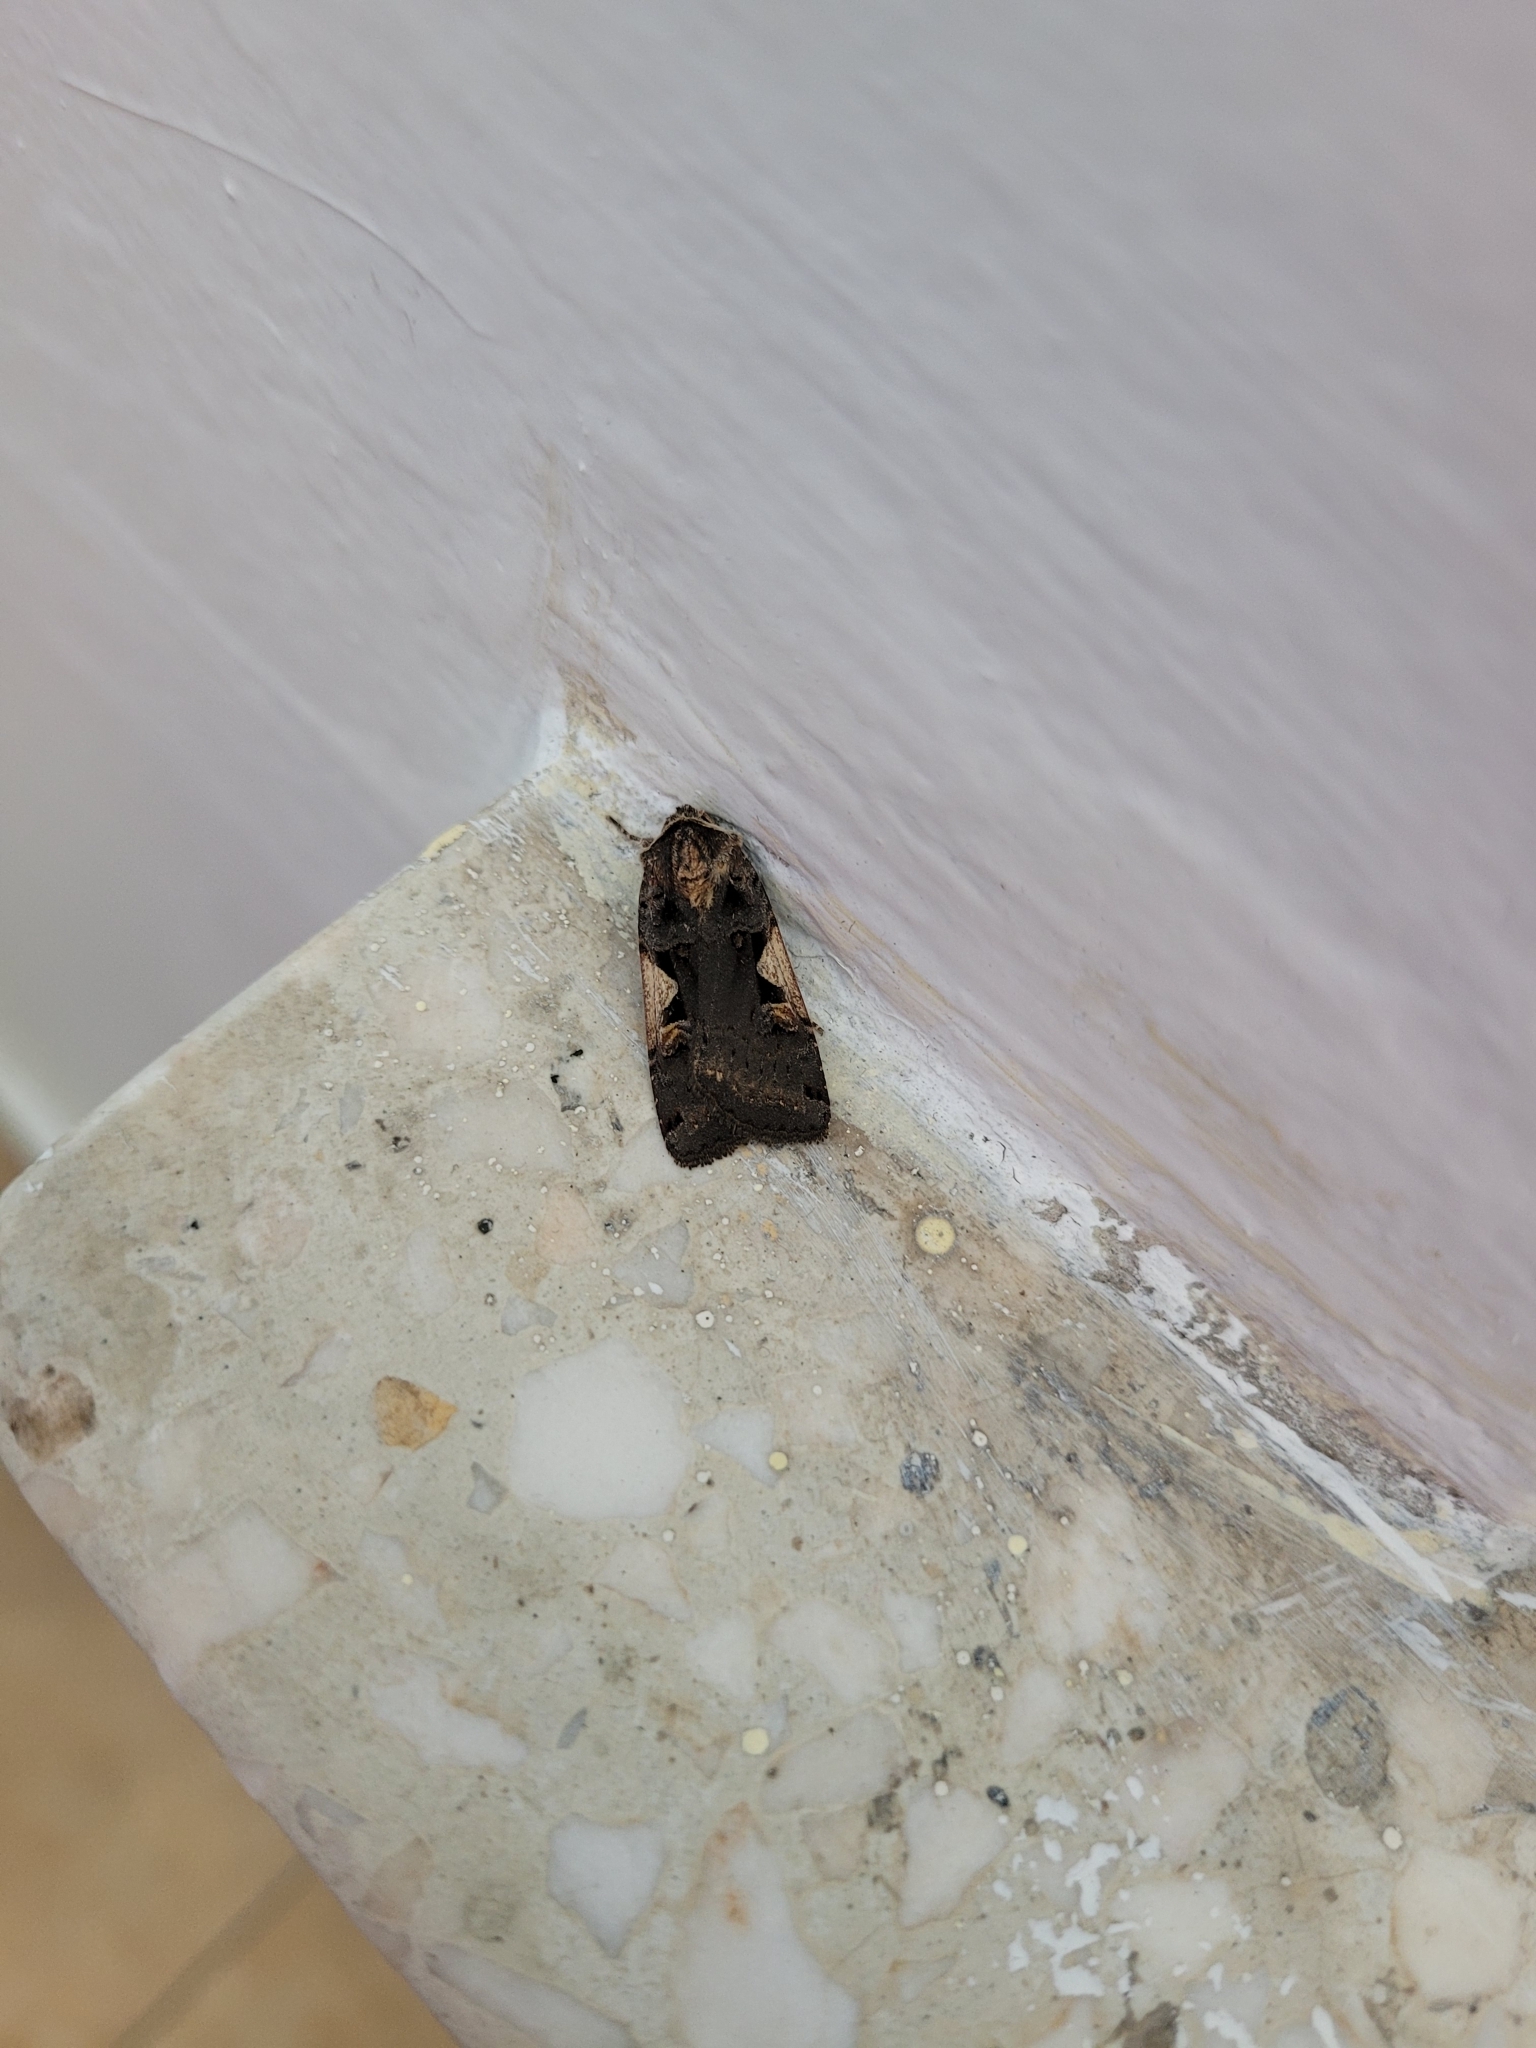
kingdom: Animalia
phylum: Arthropoda
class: Insecta
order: Lepidoptera
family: Noctuidae
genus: Xestia
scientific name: Xestia c-nigrum
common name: Setaceous hebrew character
